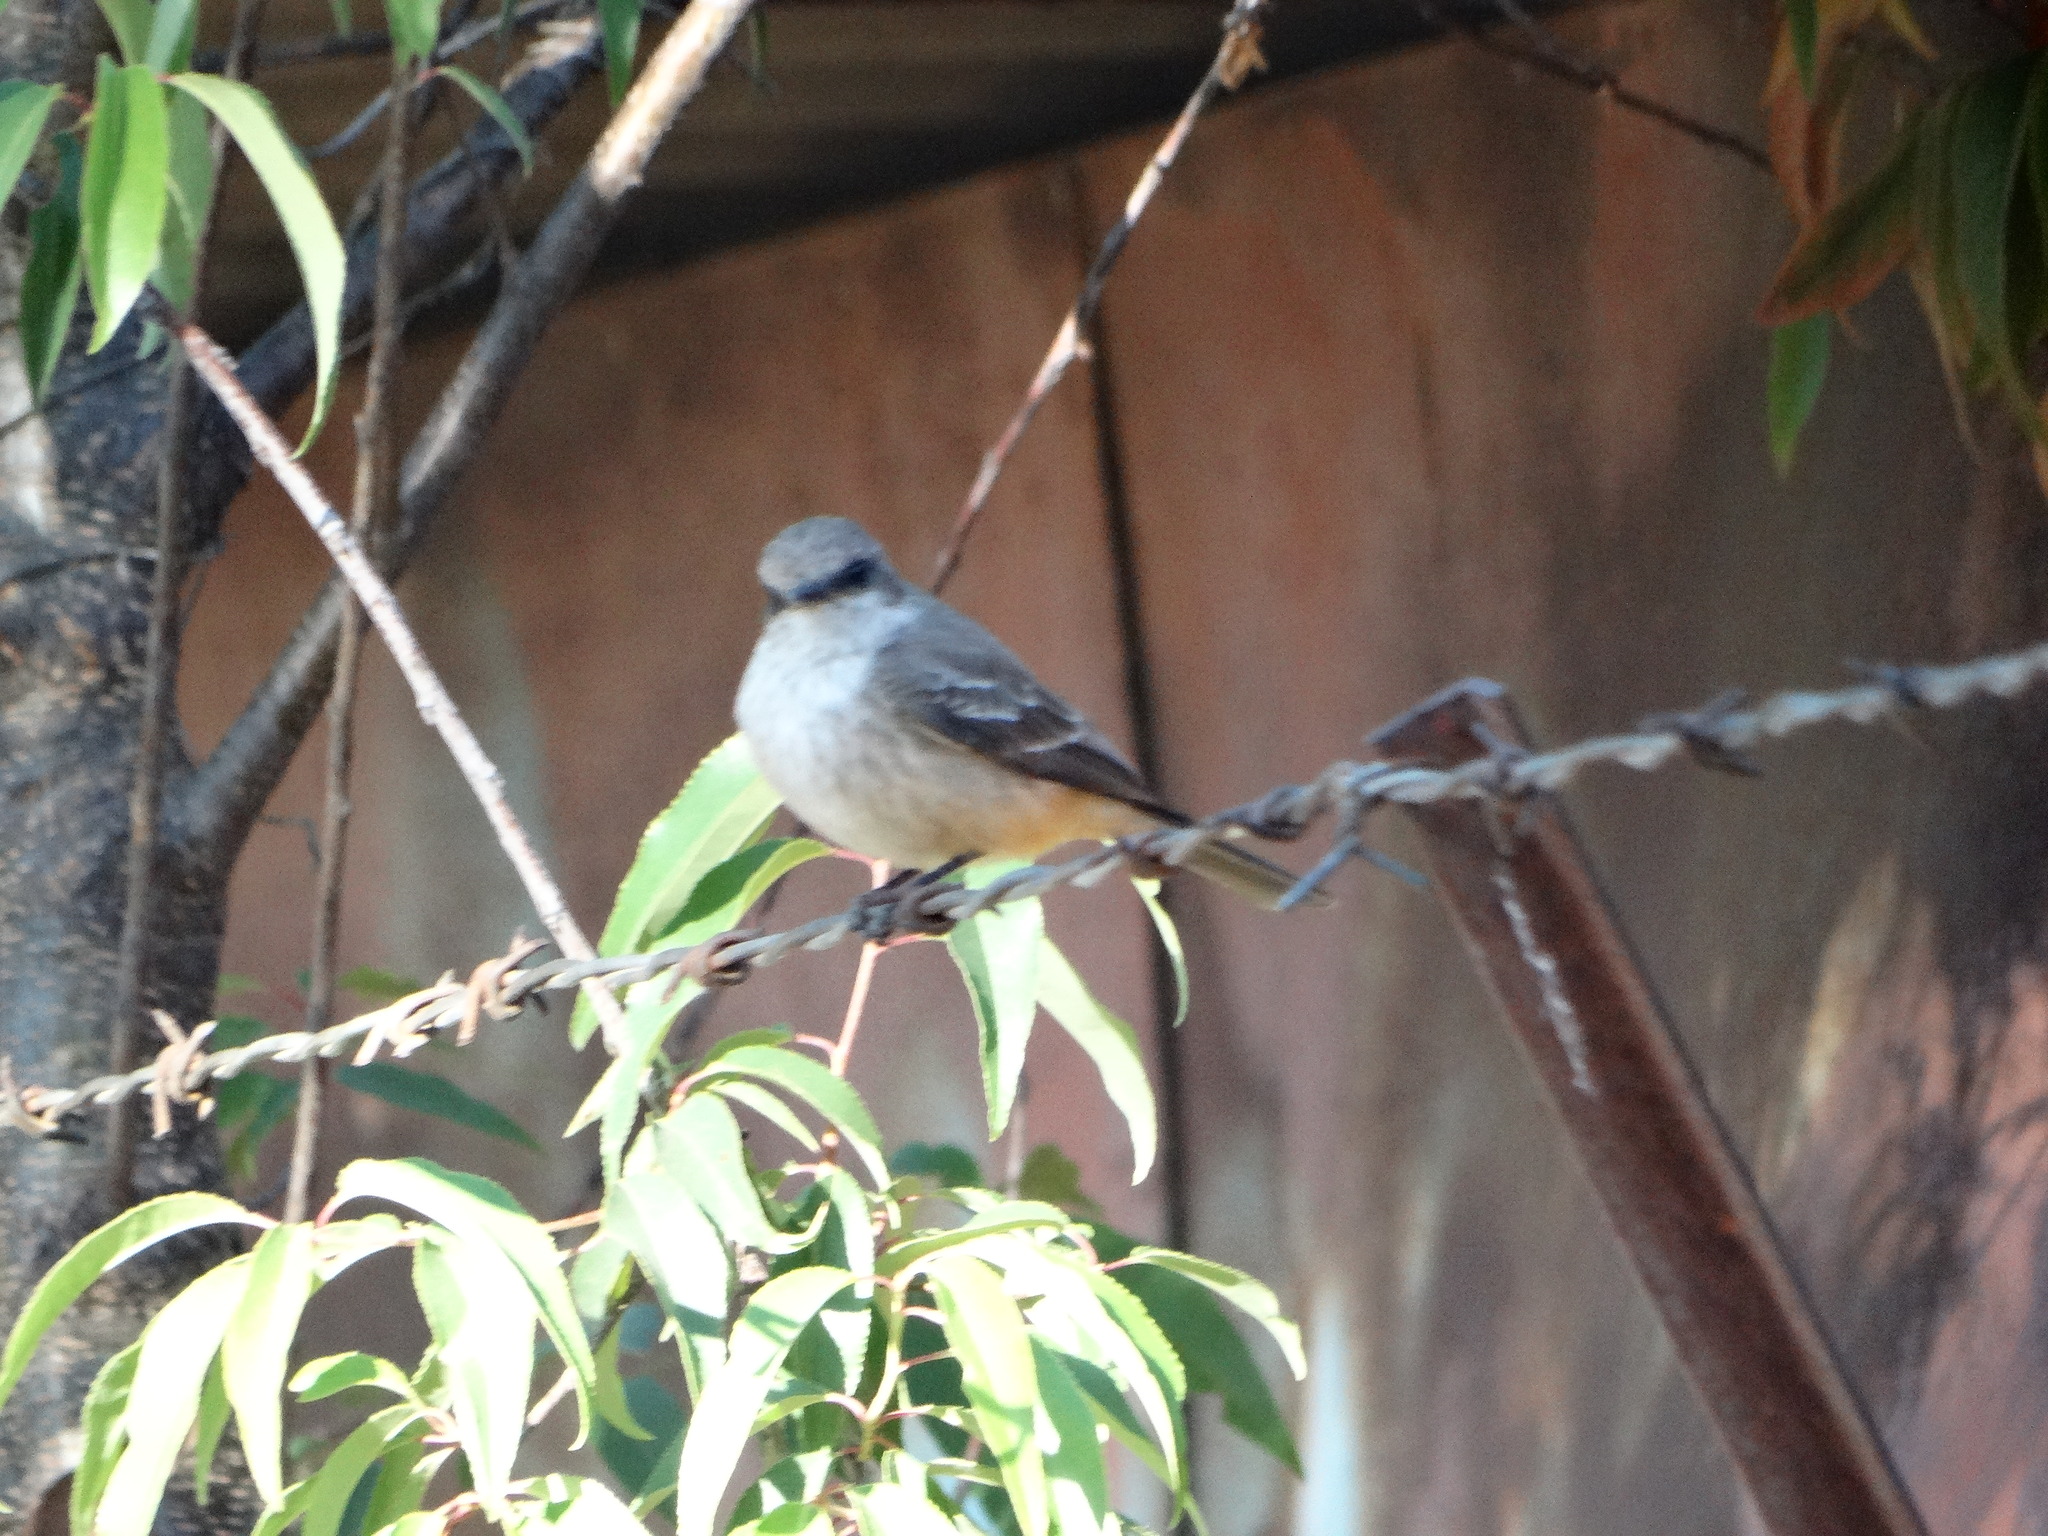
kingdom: Animalia
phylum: Chordata
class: Aves
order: Passeriformes
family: Tyrannidae
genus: Pyrocephalus
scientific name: Pyrocephalus rubinus
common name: Vermilion flycatcher
